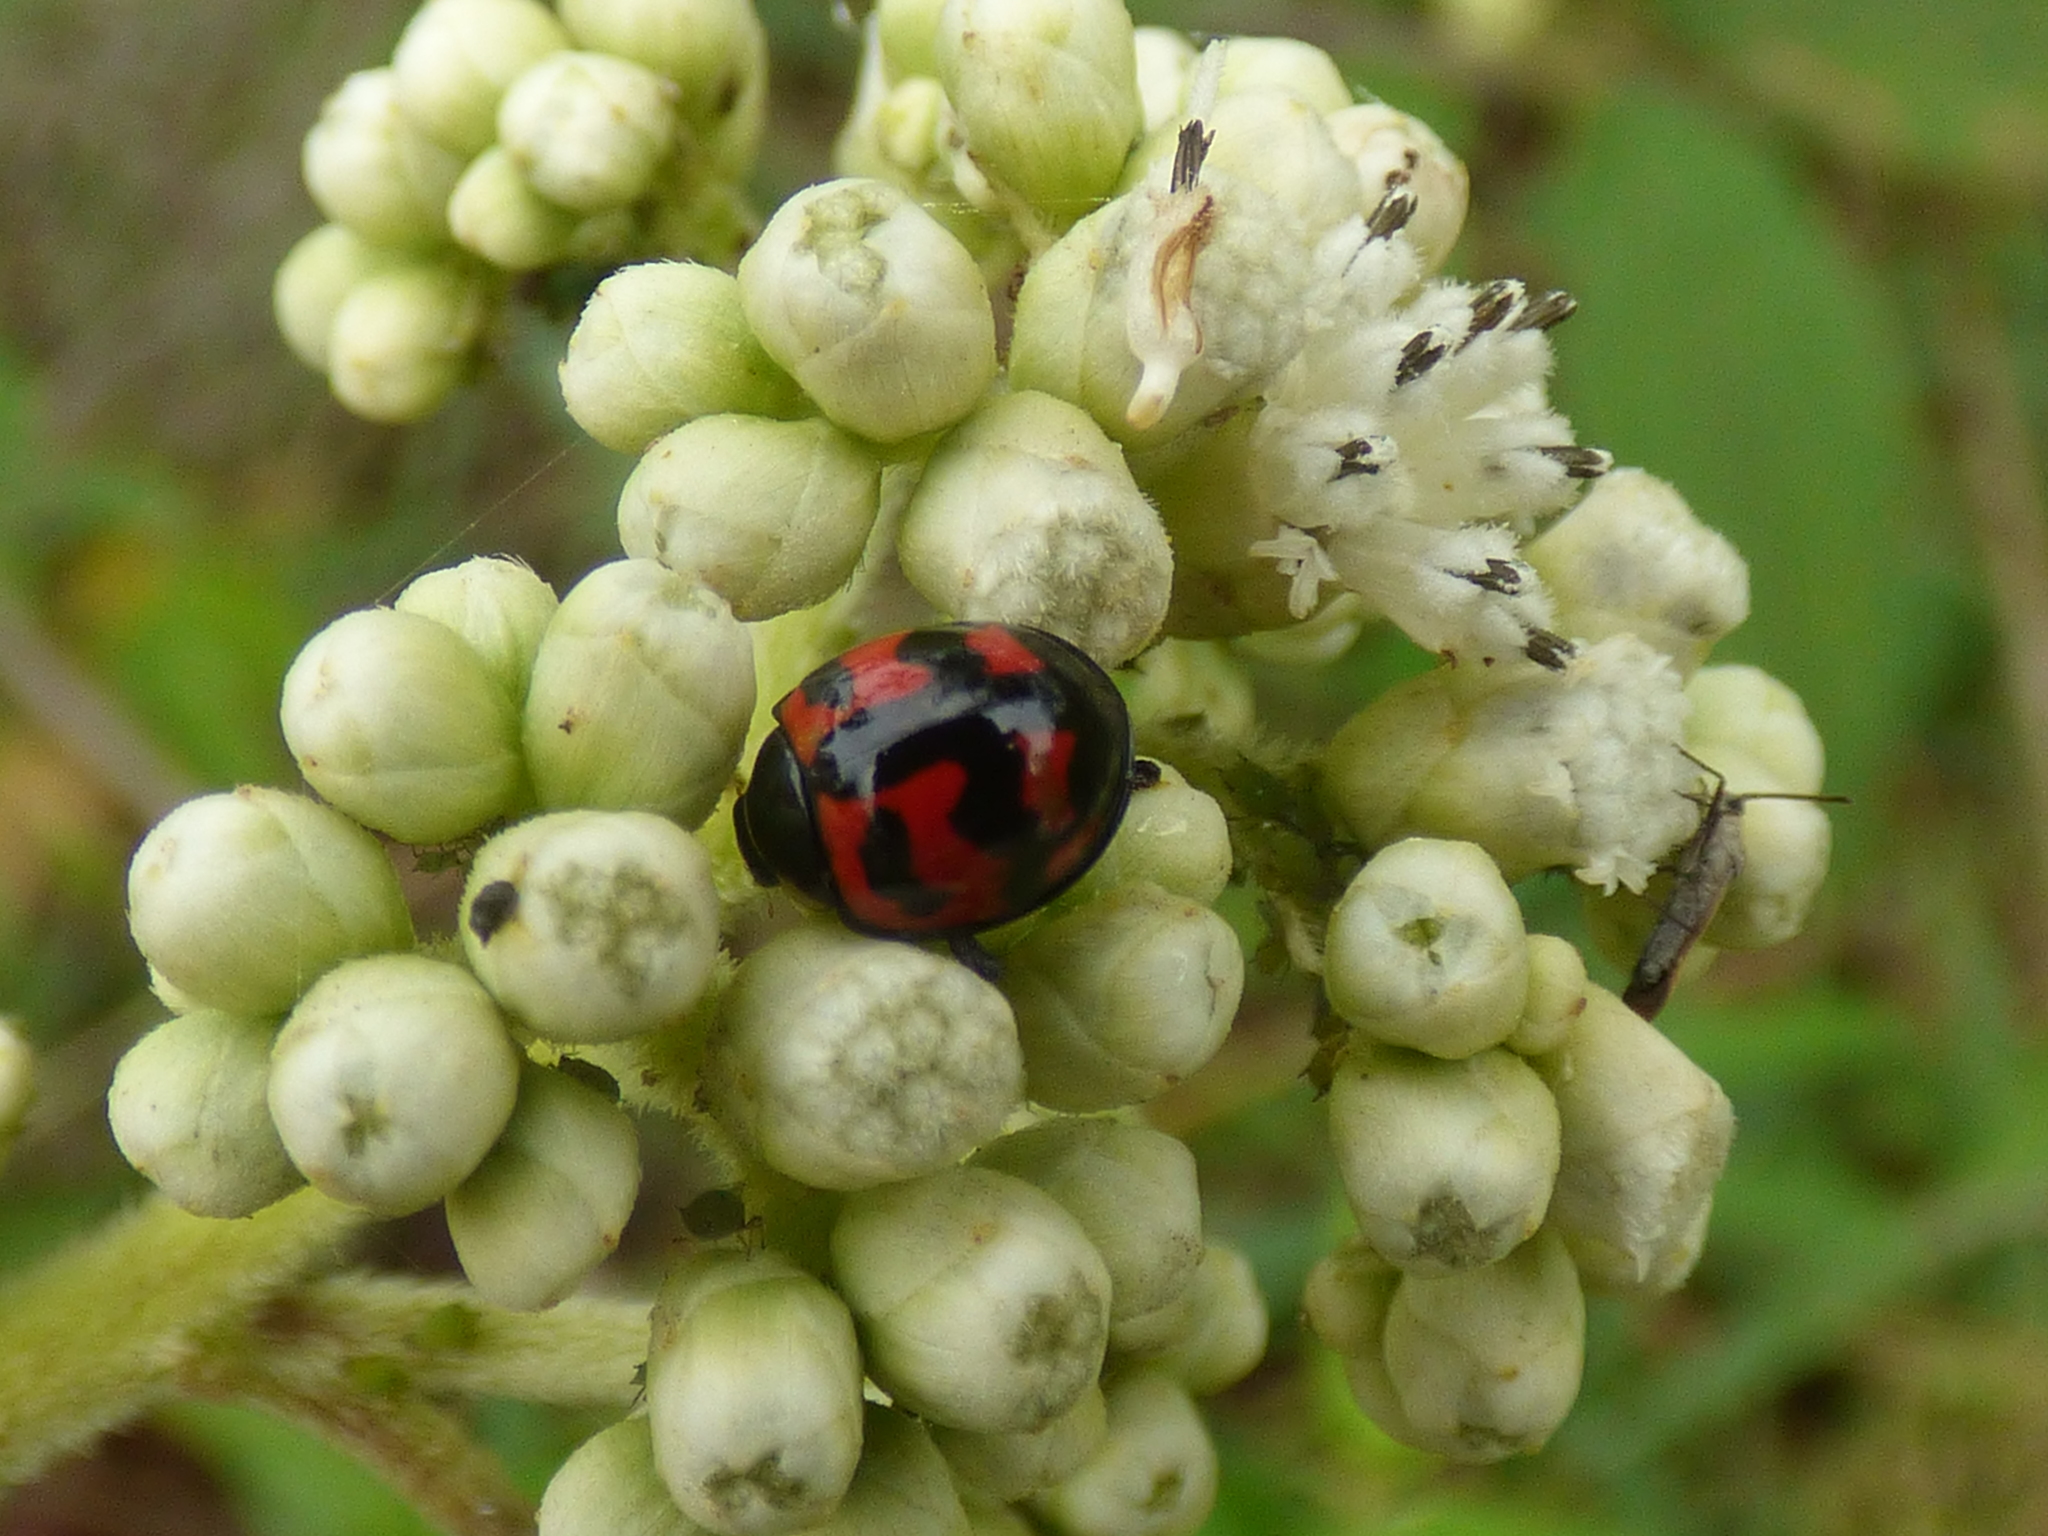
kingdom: Animalia
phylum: Arthropoda
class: Insecta
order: Coleoptera
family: Coccinellidae
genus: Cheilomenes
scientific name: Cheilomenes sexmaculata
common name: Ladybird beetle
